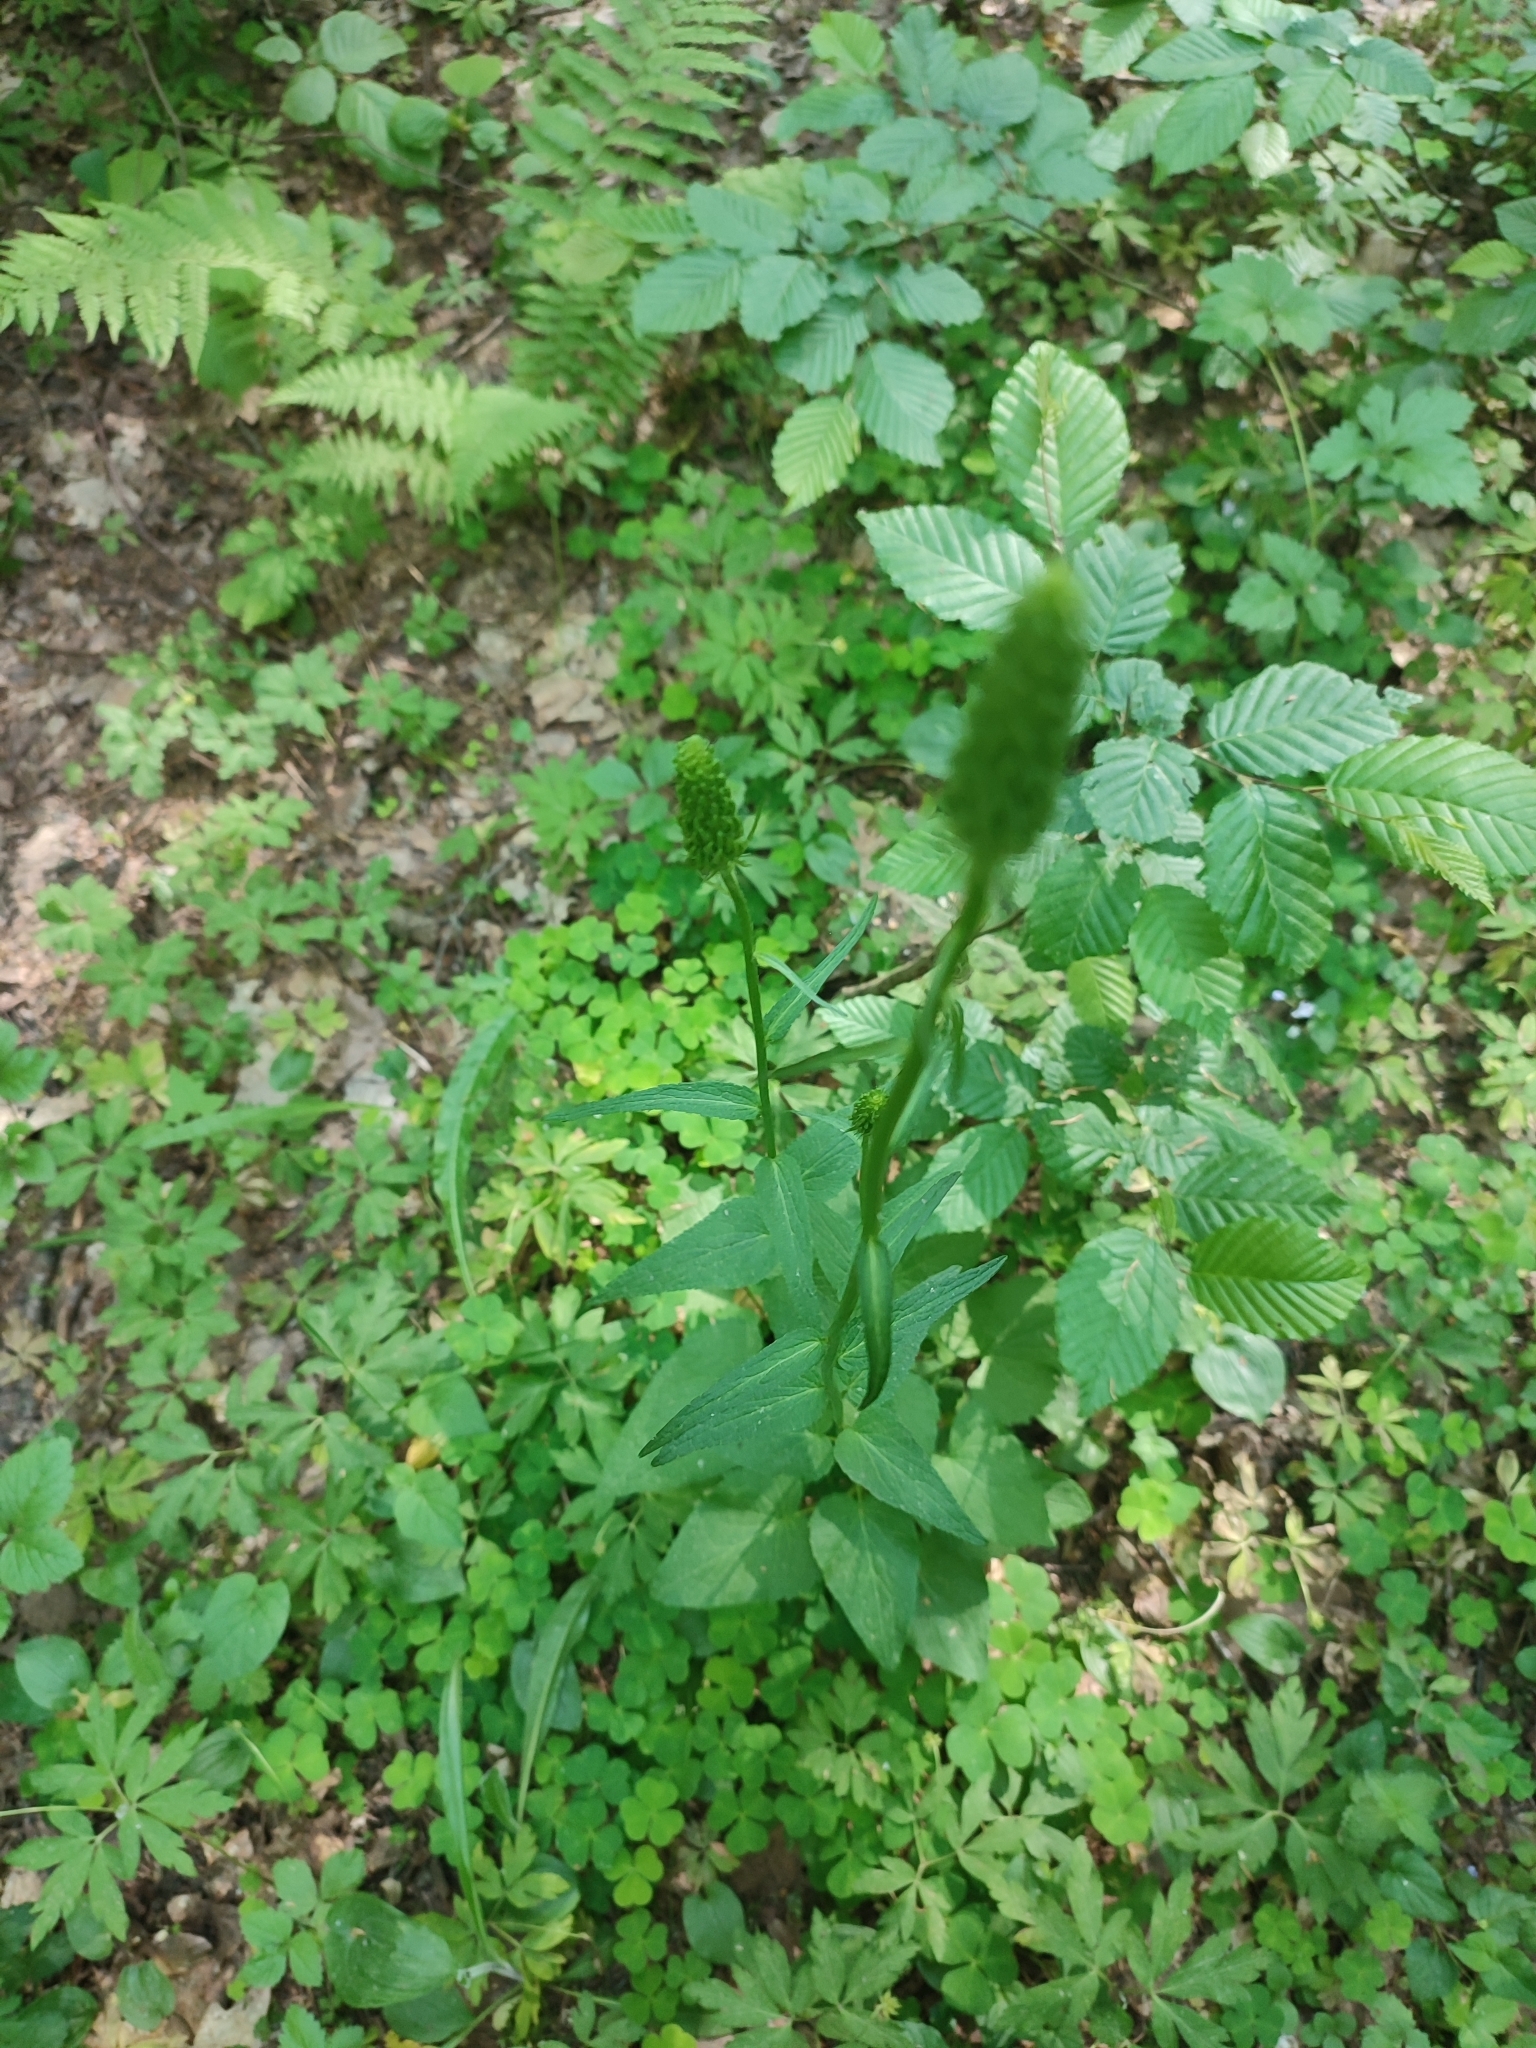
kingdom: Plantae
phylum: Tracheophyta
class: Magnoliopsida
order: Asterales
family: Campanulaceae
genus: Phyteuma
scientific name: Phyteuma spicatum
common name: Spiked rampion
